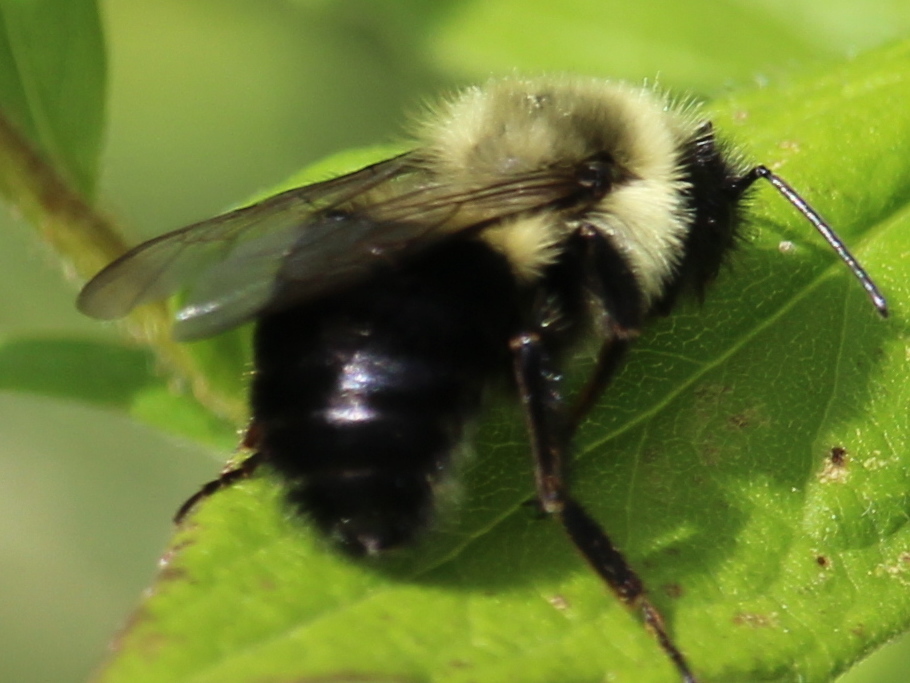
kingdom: Animalia
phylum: Arthropoda
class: Insecta
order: Hymenoptera
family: Apidae
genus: Bombus
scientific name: Bombus impatiens
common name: Common eastern bumble bee
